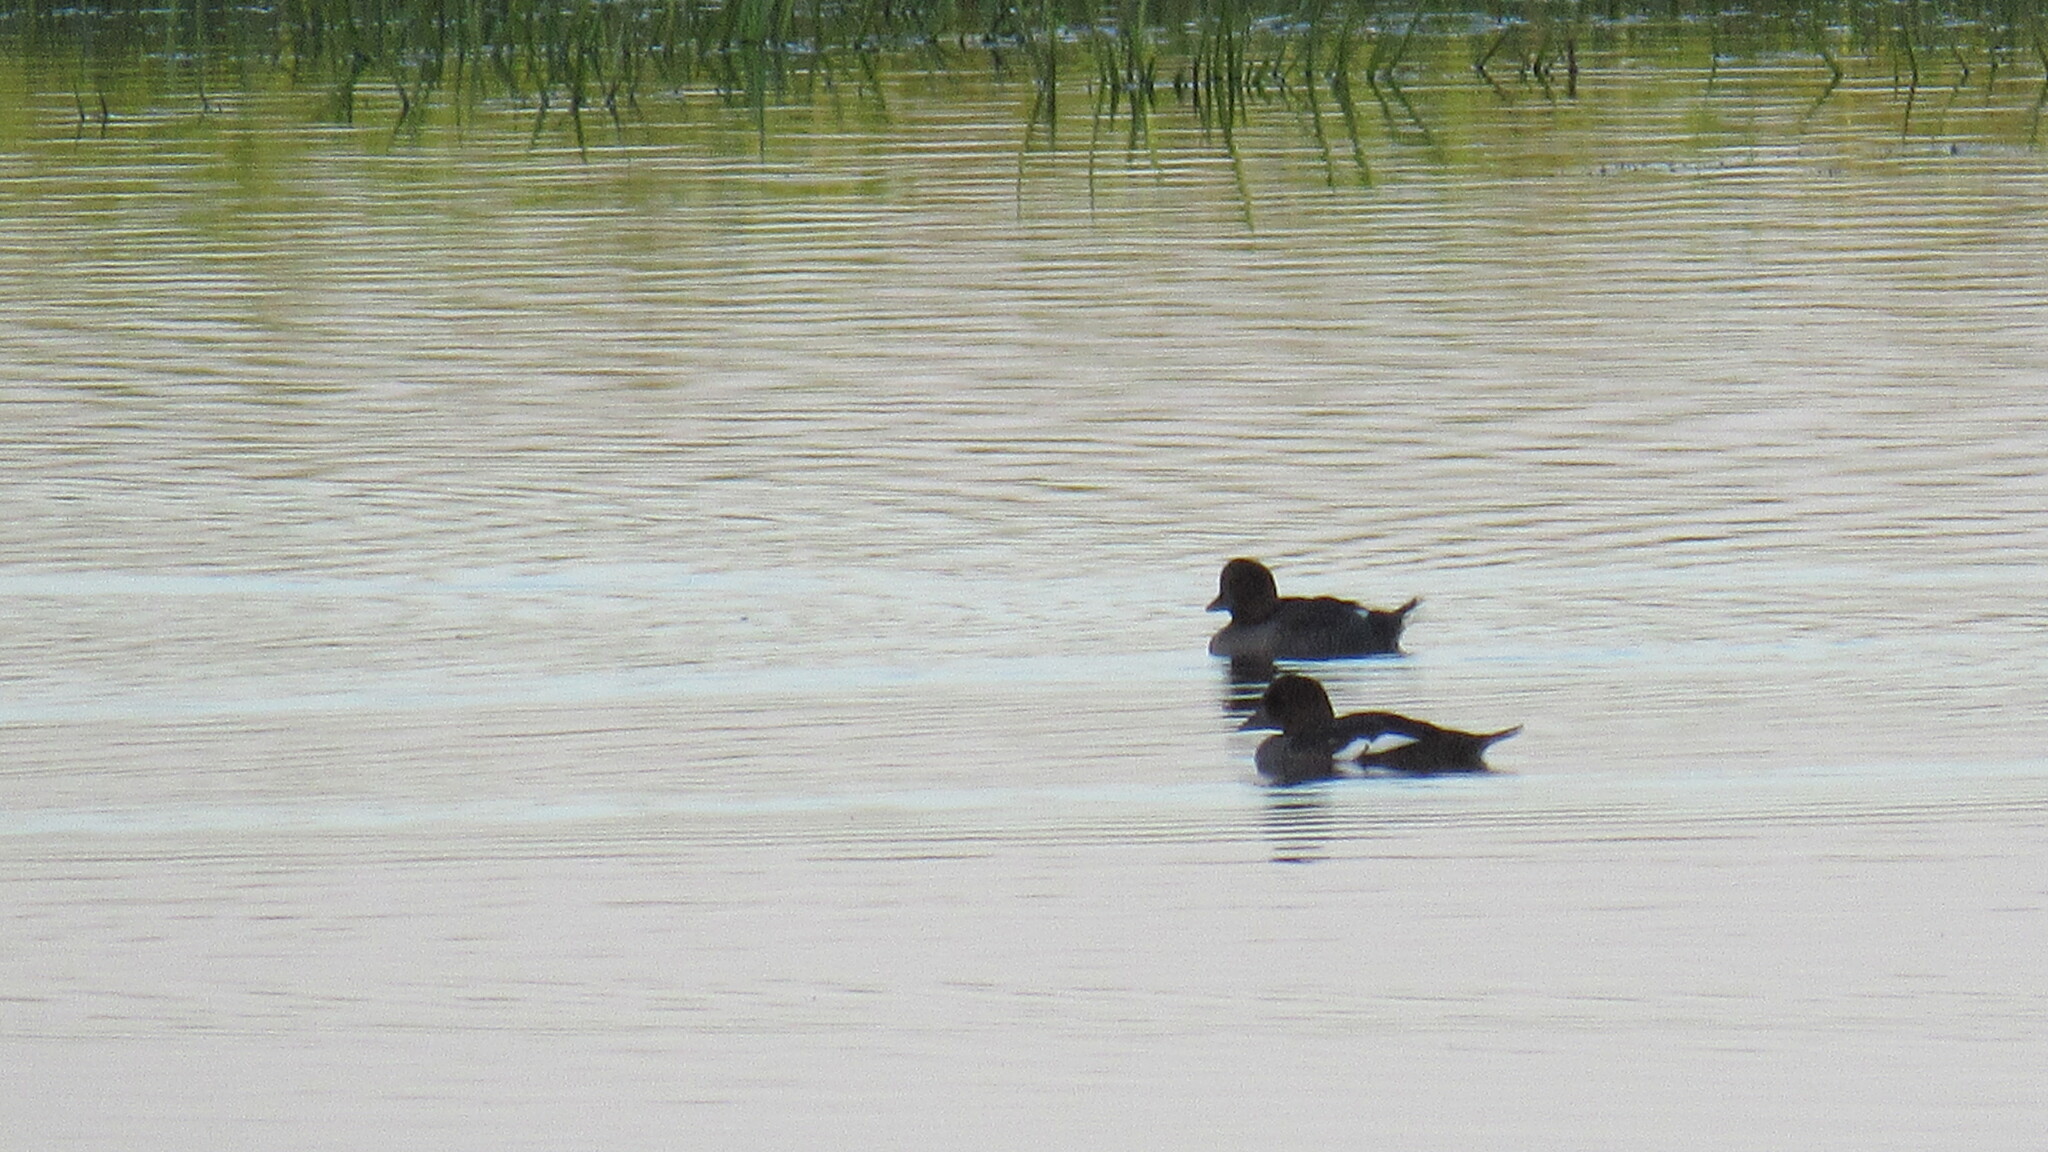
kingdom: Animalia
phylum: Chordata
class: Aves
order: Anseriformes
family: Anatidae
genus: Aythya
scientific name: Aythya nyroca
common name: Ferruginous duck
